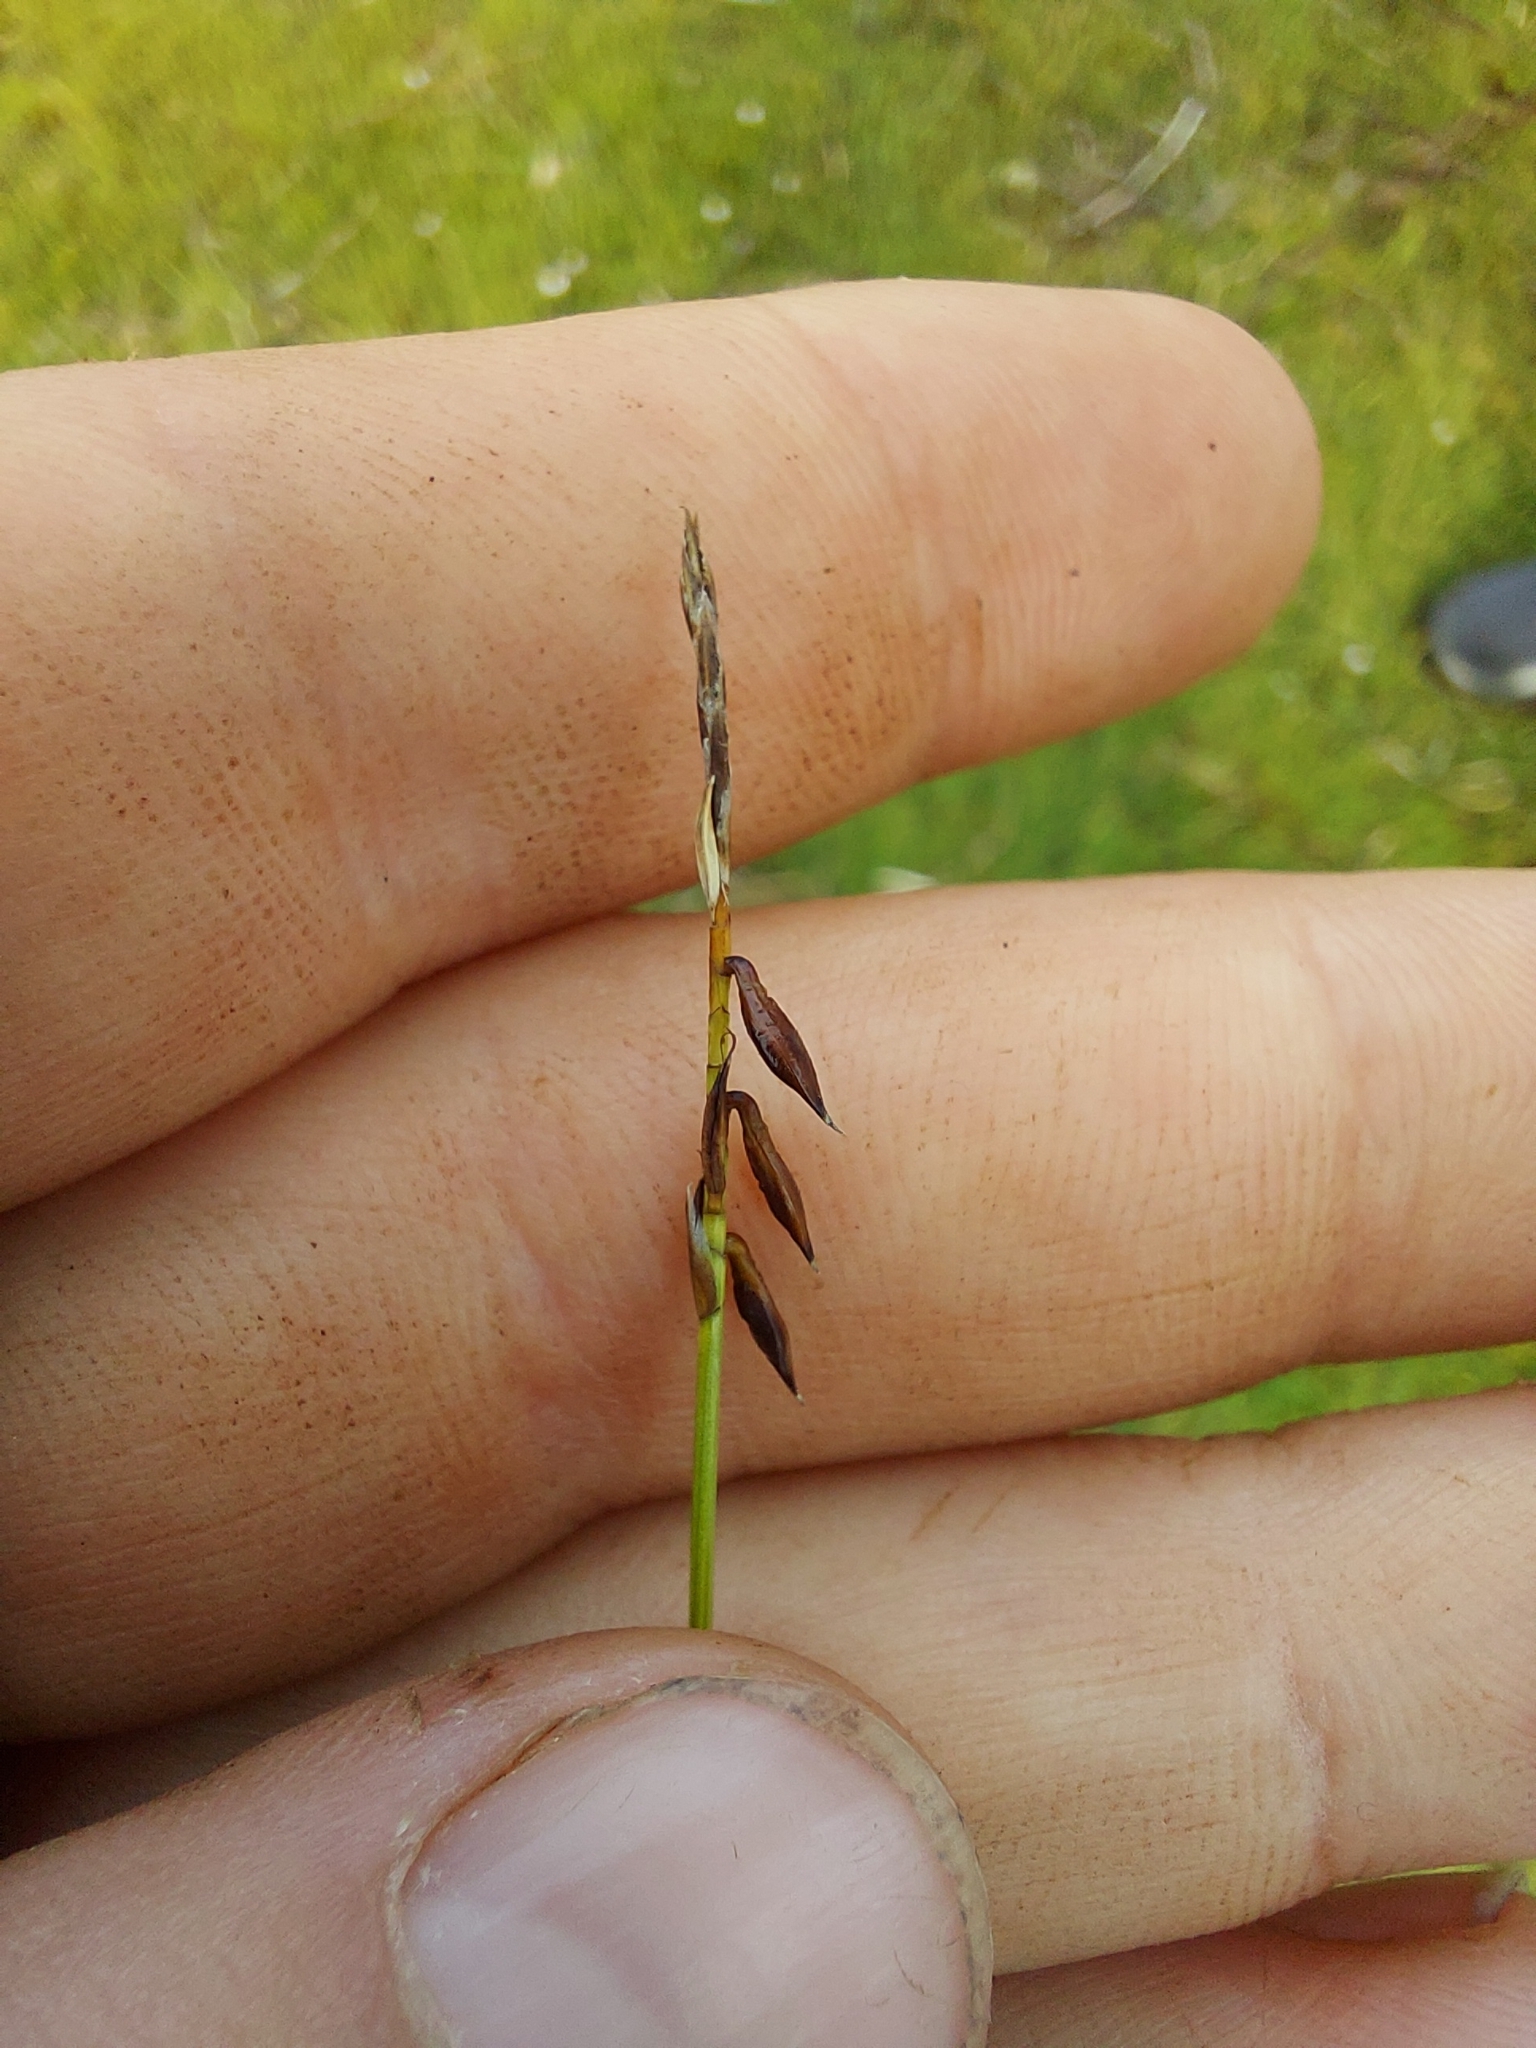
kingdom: Plantae
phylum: Tracheophyta
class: Liliopsida
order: Poales
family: Cyperaceae
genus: Carex
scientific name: Carex pulicaris
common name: Flea sedge
